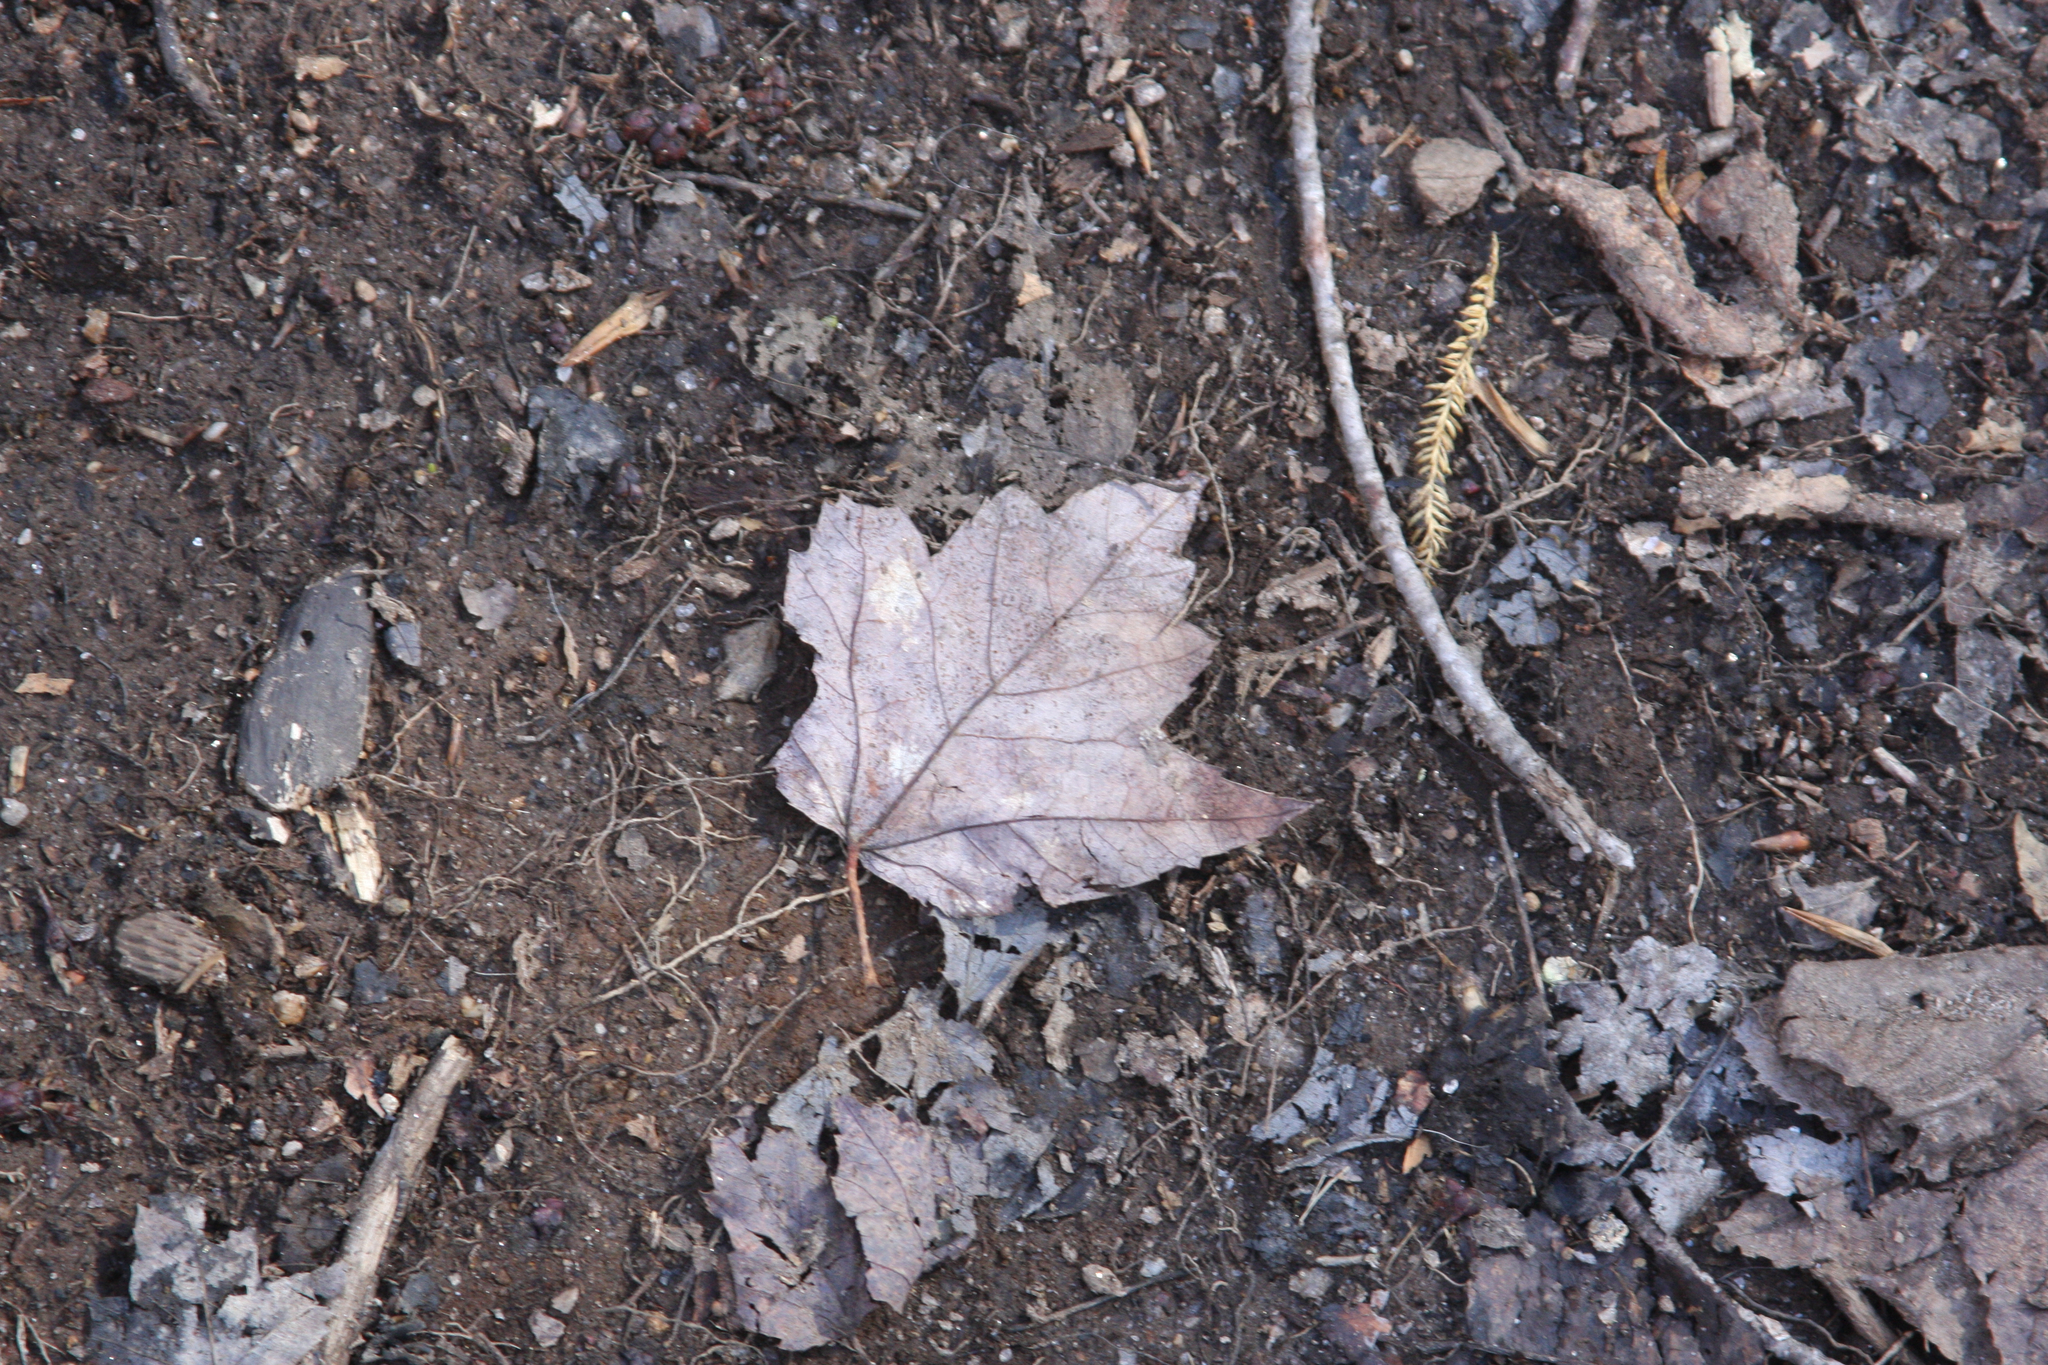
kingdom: Plantae
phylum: Tracheophyta
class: Magnoliopsida
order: Sapindales
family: Sapindaceae
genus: Acer
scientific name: Acer rubrum
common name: Red maple
